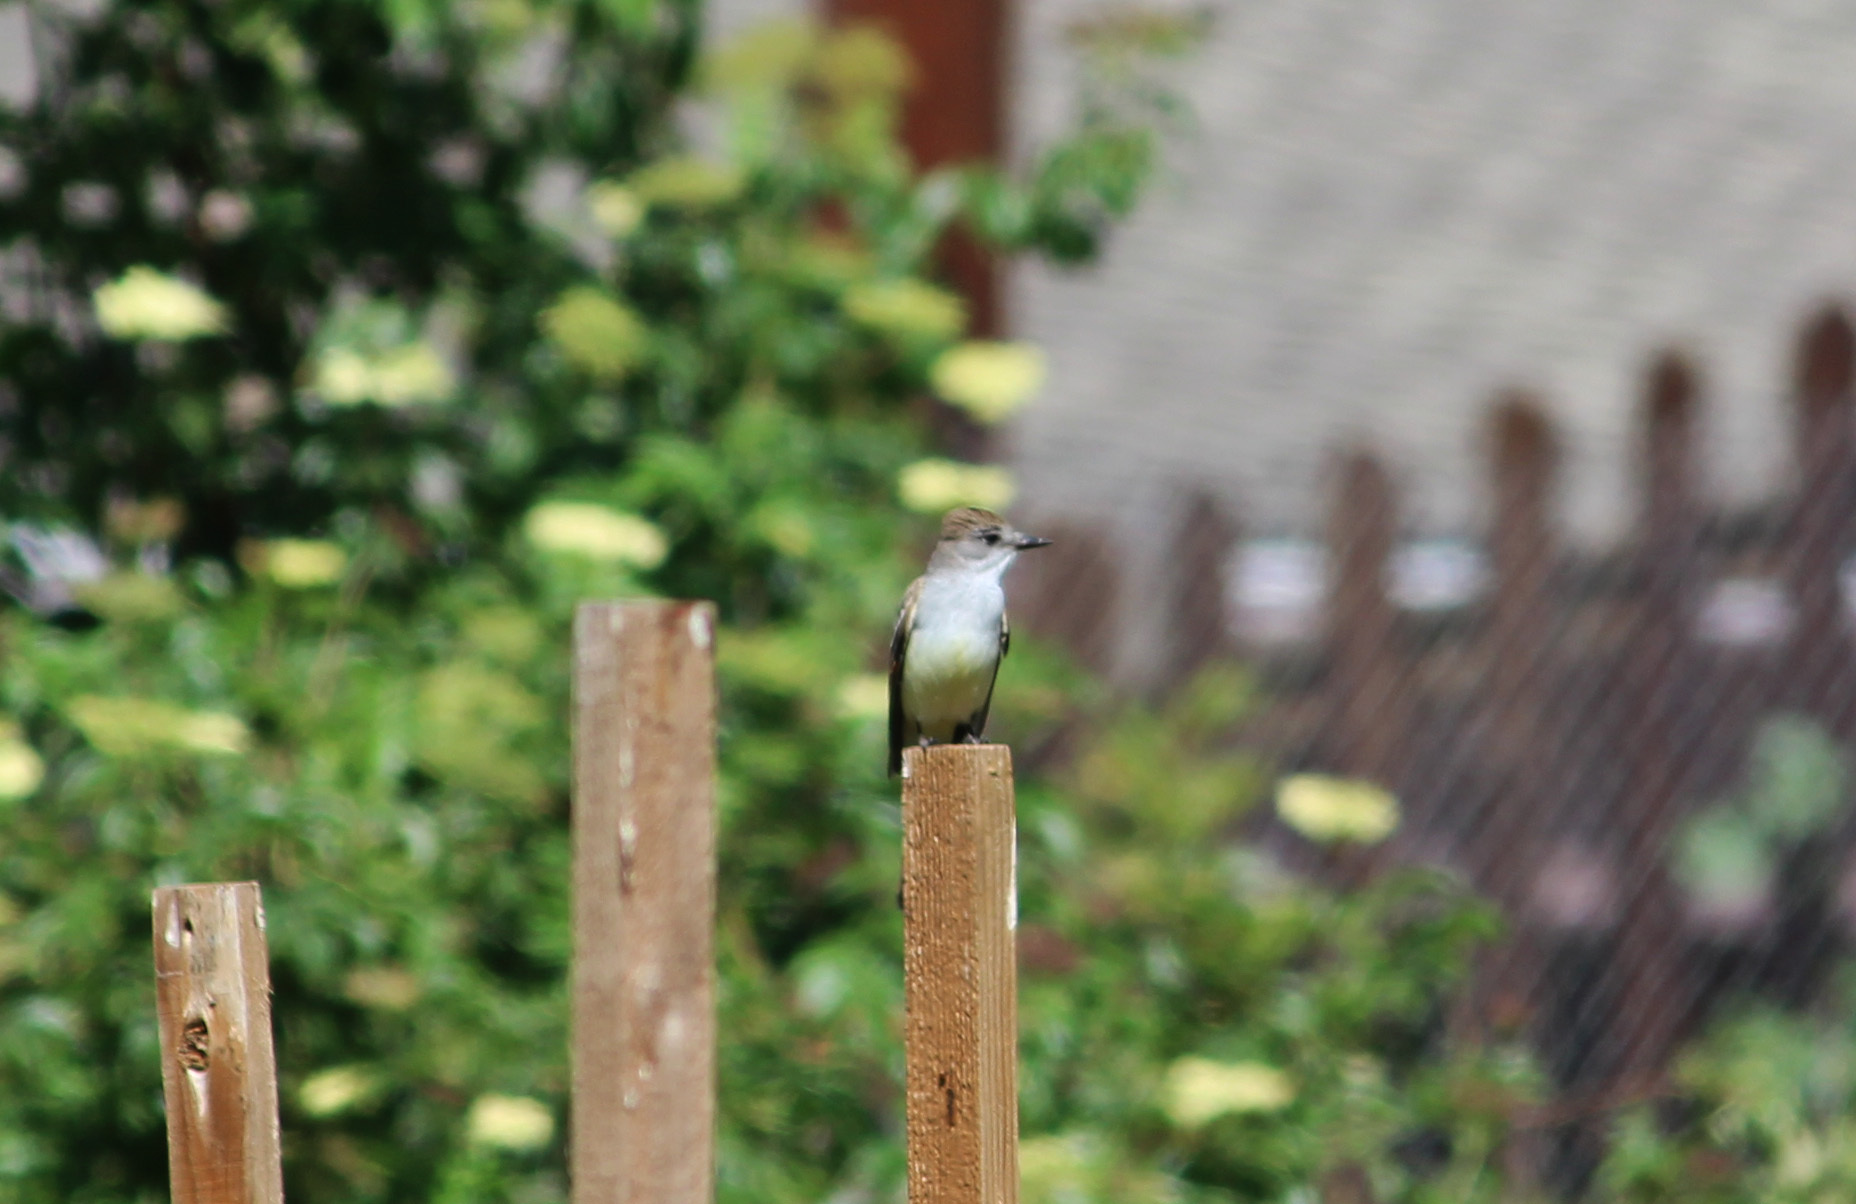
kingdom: Animalia
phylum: Chordata
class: Aves
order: Passeriformes
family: Tyrannidae
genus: Myiarchus
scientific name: Myiarchus cinerascens
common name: Ash-throated flycatcher
